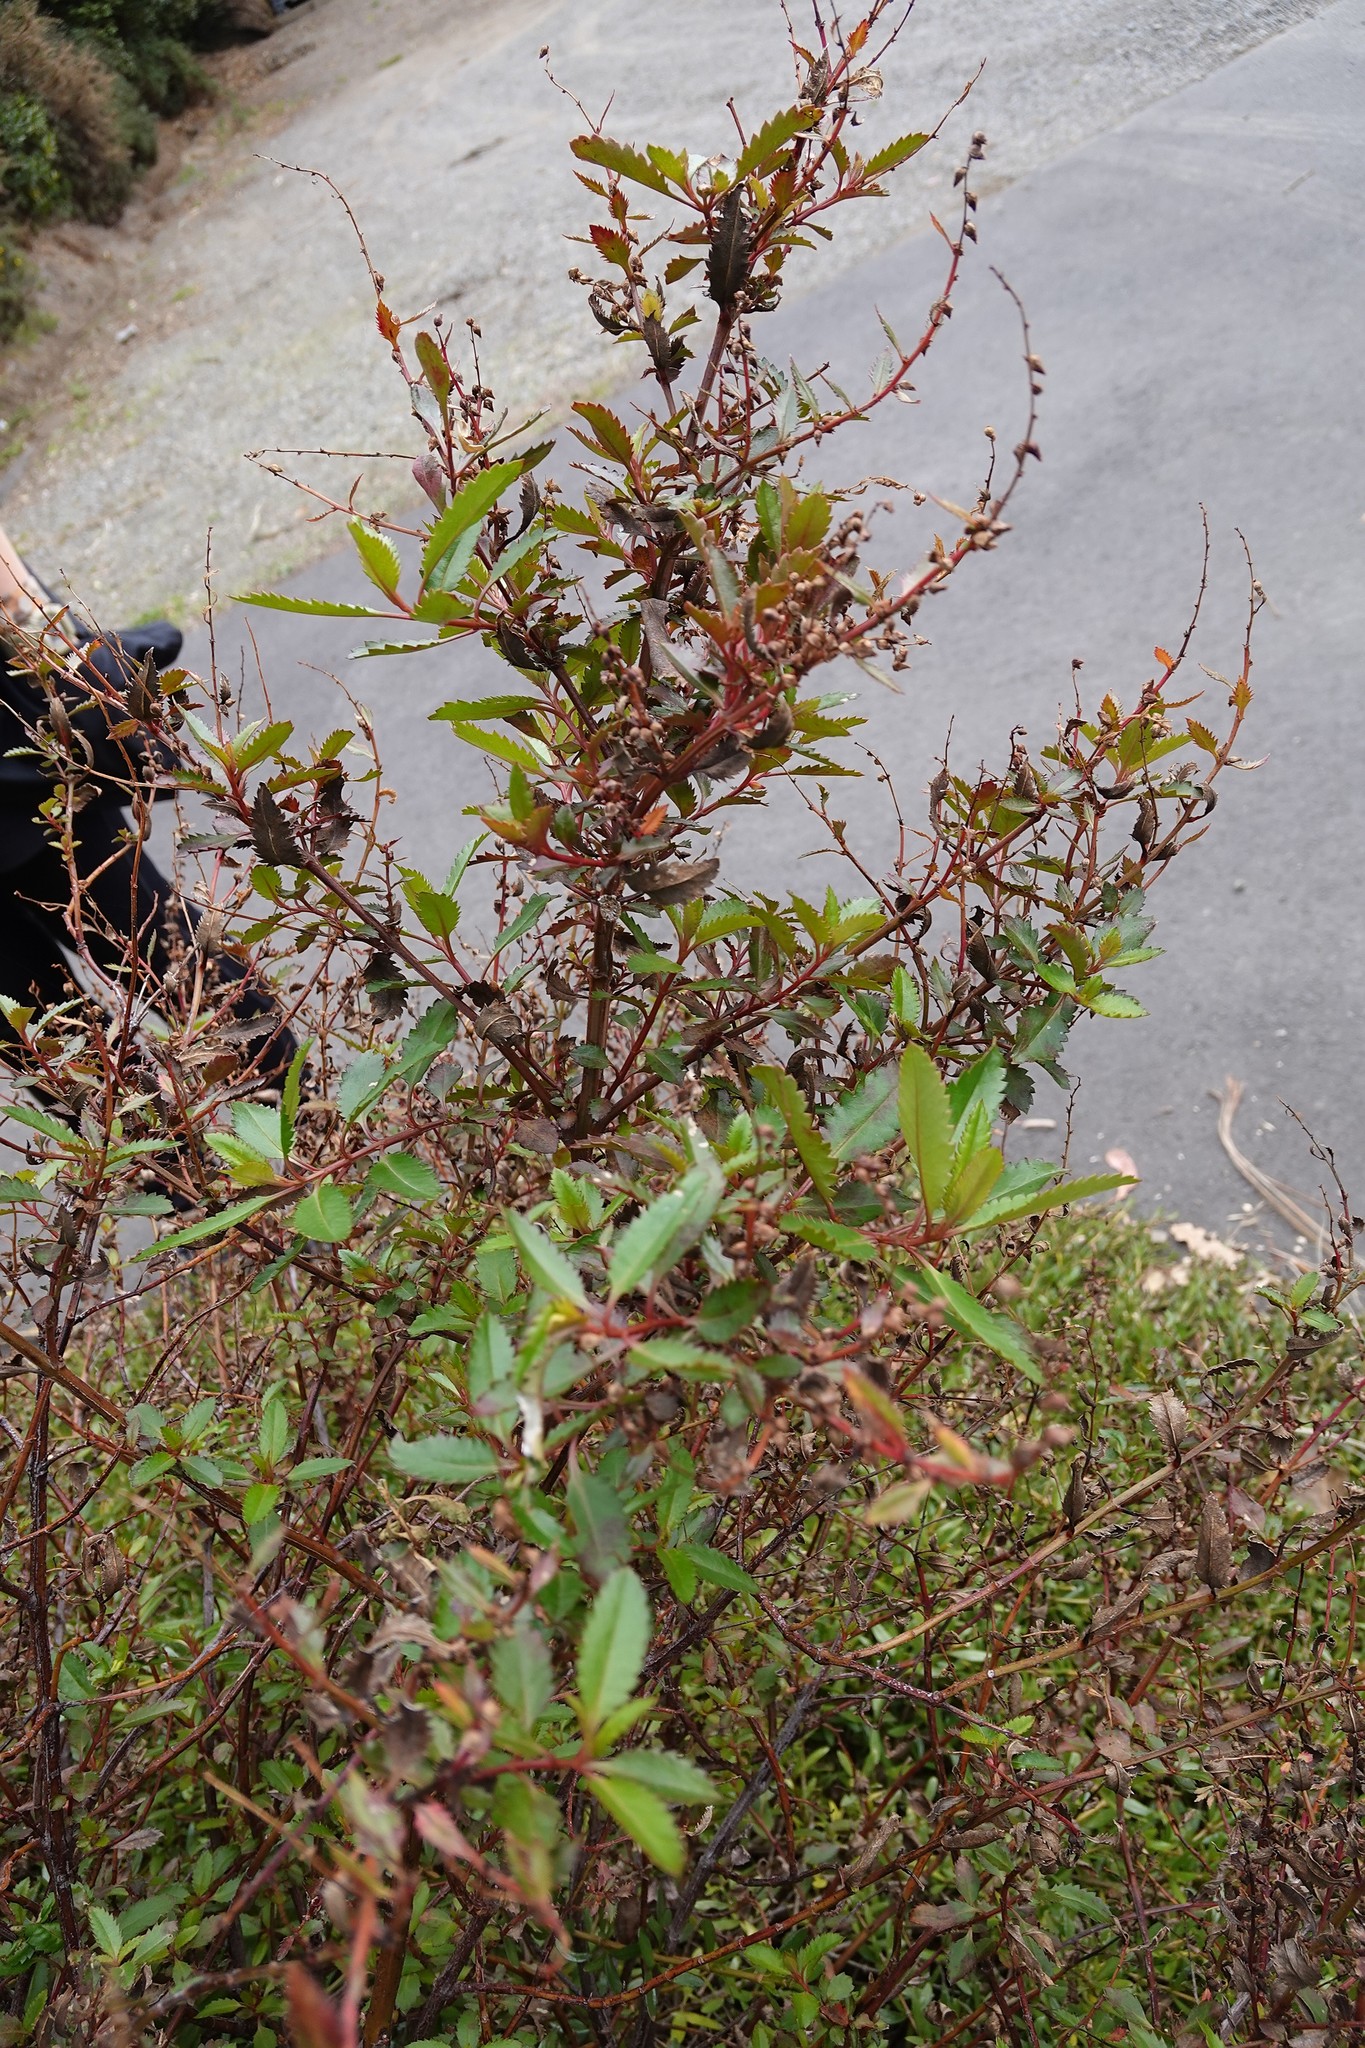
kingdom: Plantae
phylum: Tracheophyta
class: Magnoliopsida
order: Saxifragales
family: Haloragaceae
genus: Haloragis
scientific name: Haloragis erecta
